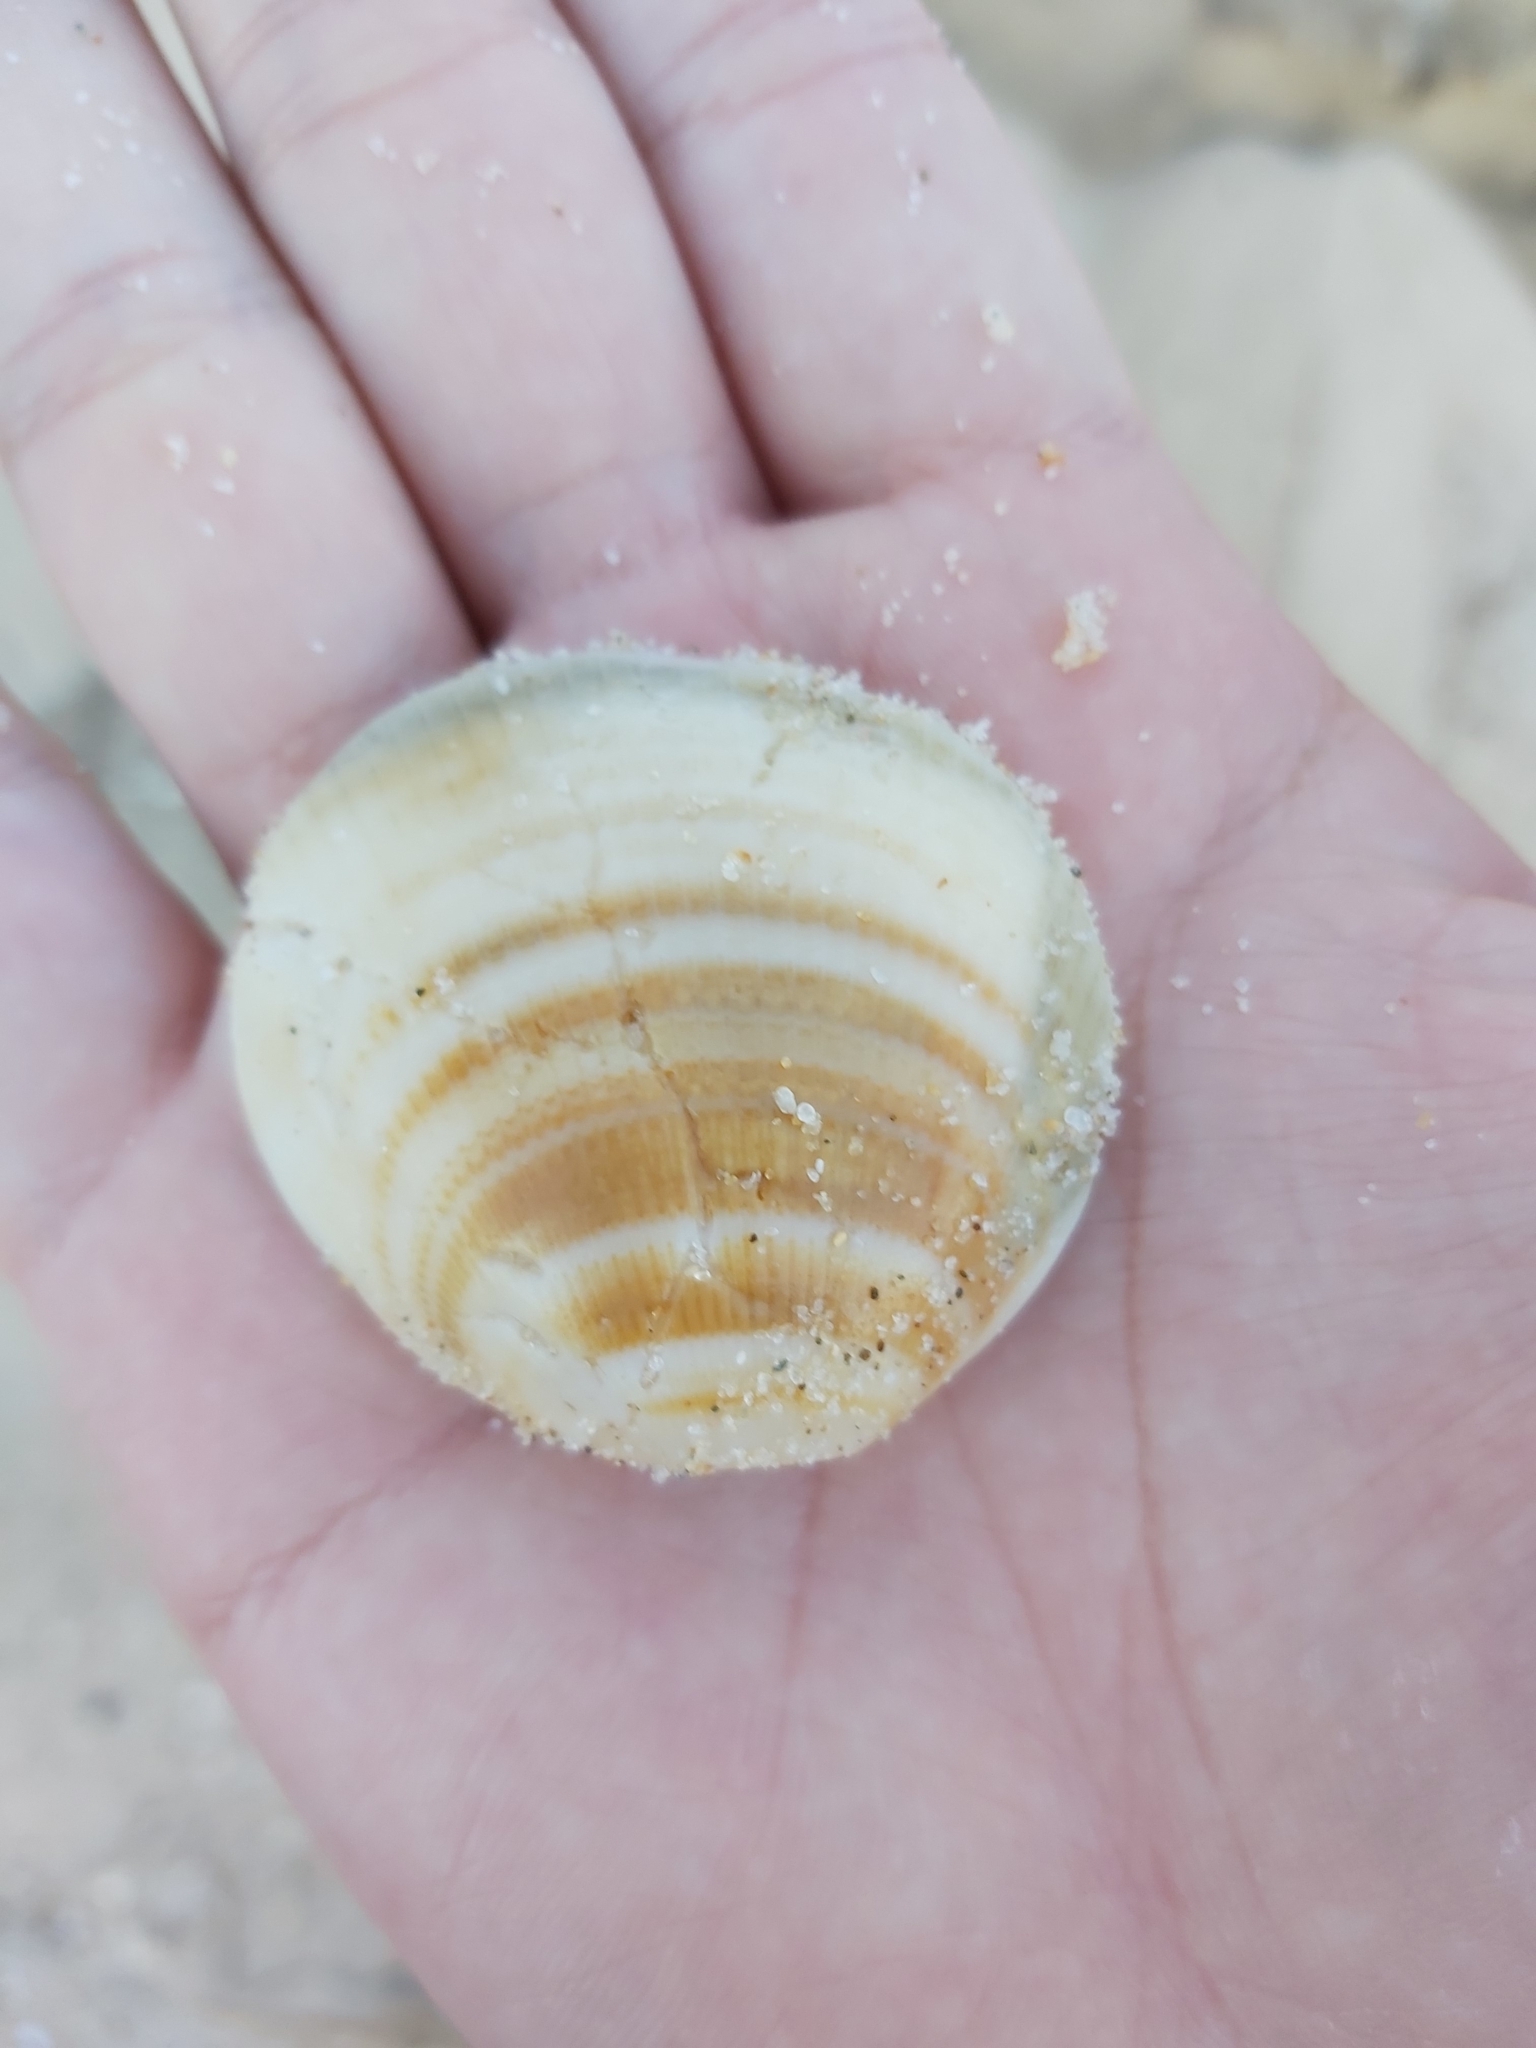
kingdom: Animalia
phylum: Mollusca
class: Bivalvia
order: Arcida
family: Glycymerididae
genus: Glycymeris
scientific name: Glycymeris grayana
